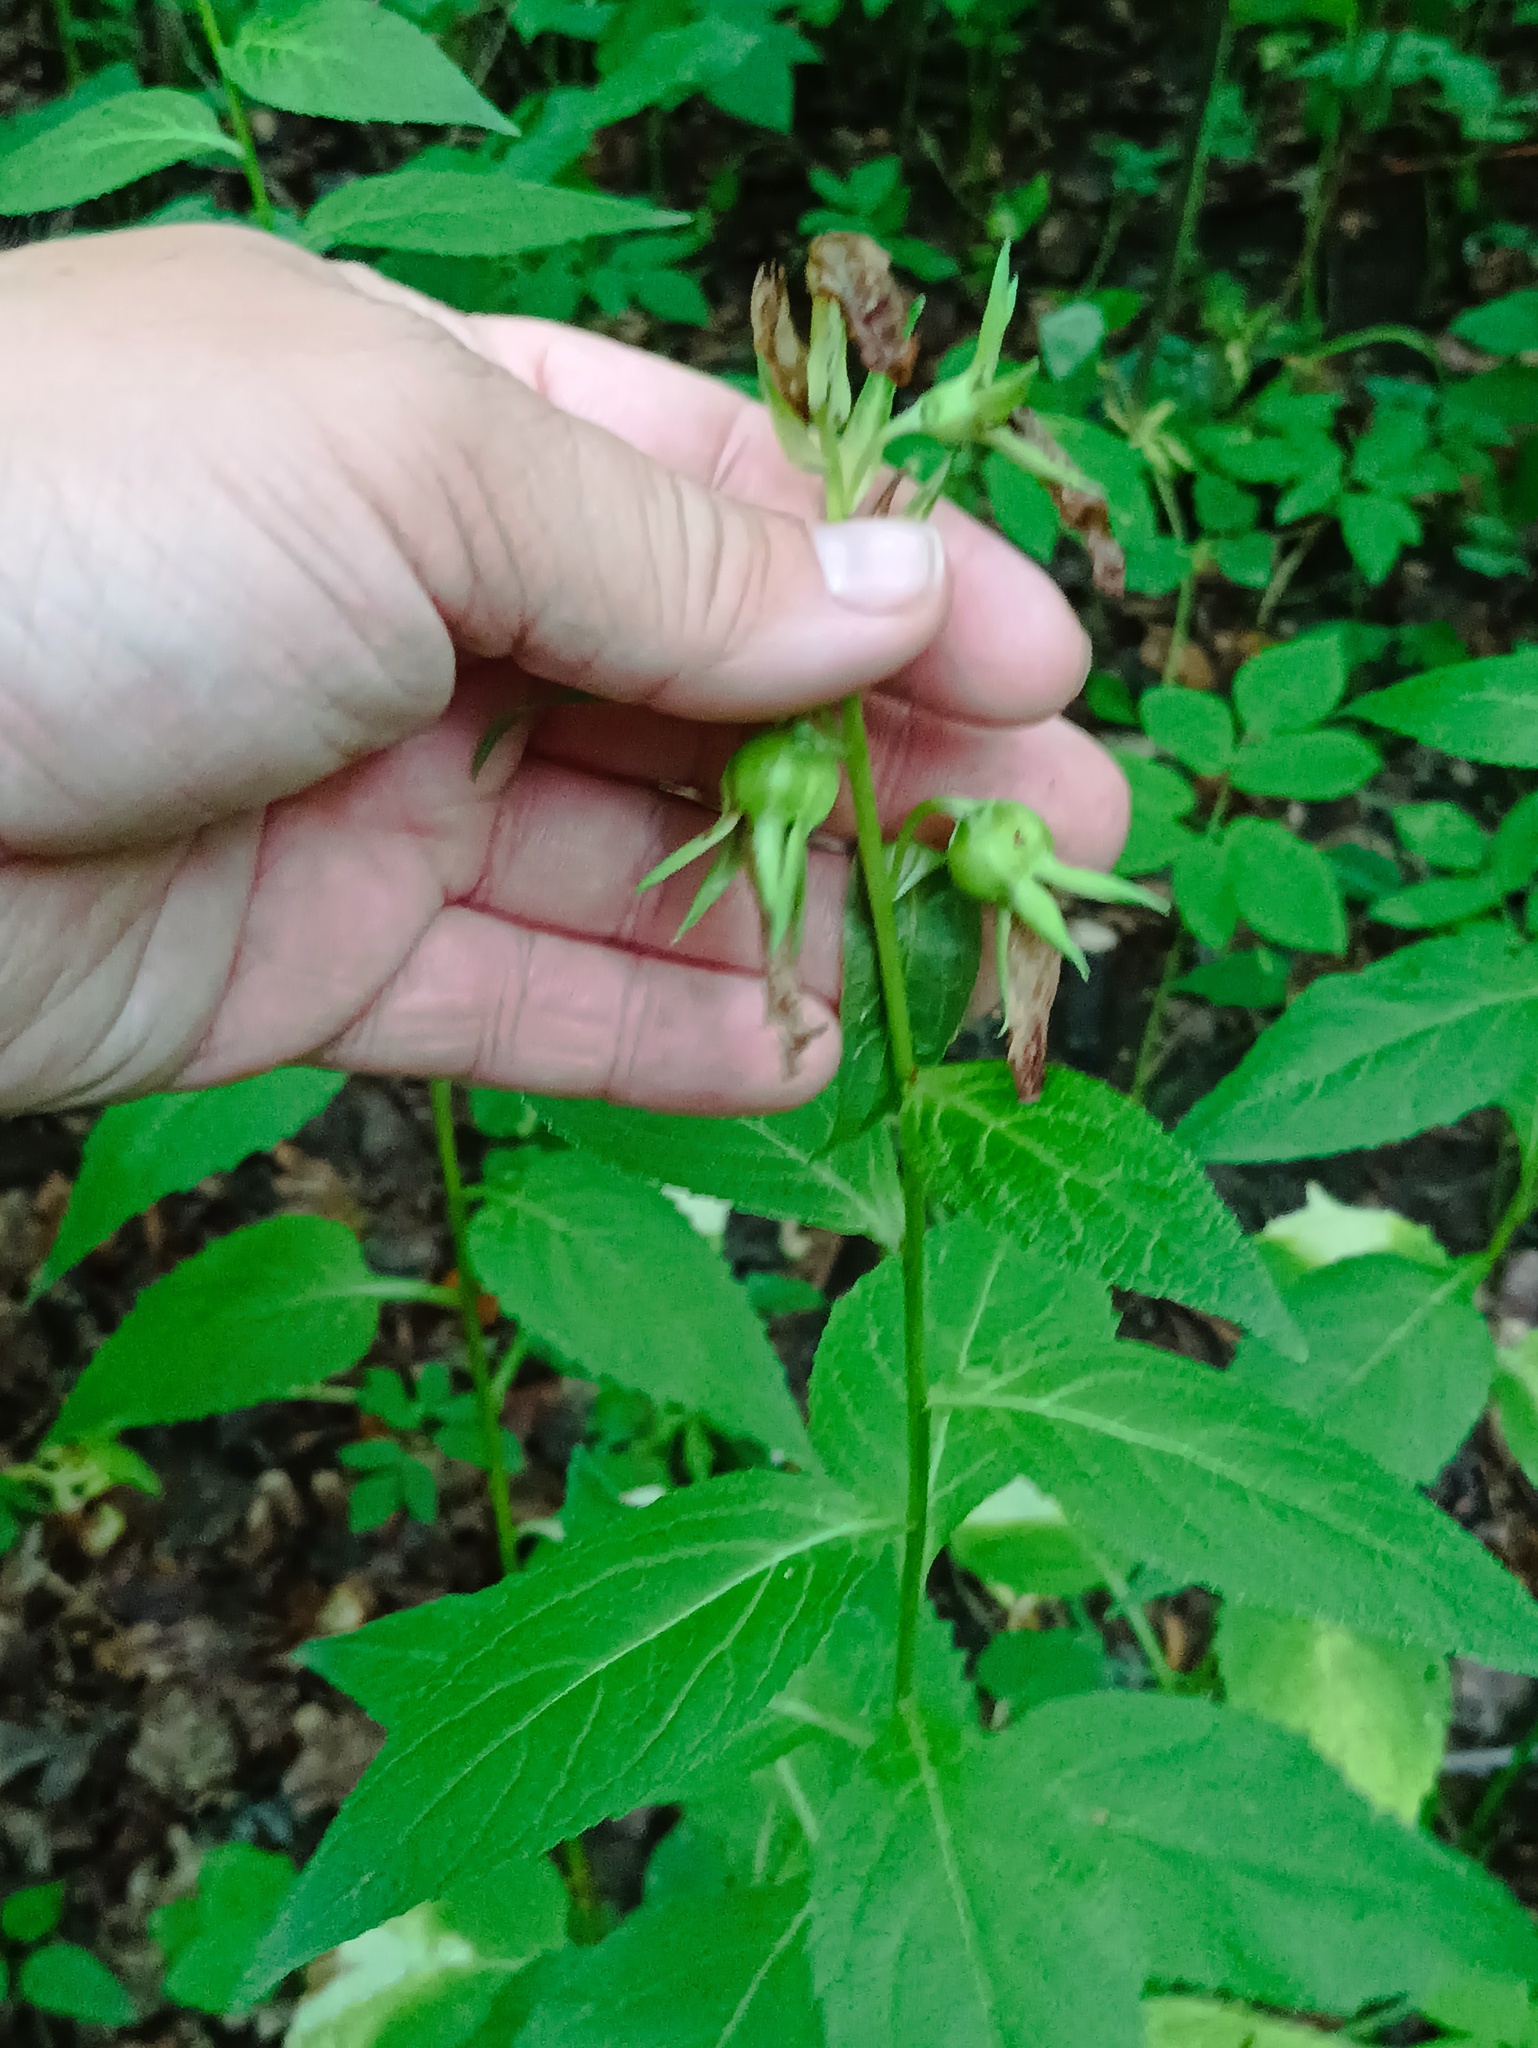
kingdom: Plantae
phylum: Tracheophyta
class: Magnoliopsida
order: Asterales
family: Campanulaceae
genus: Campanula
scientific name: Campanula latifolia
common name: Giant bellflower
